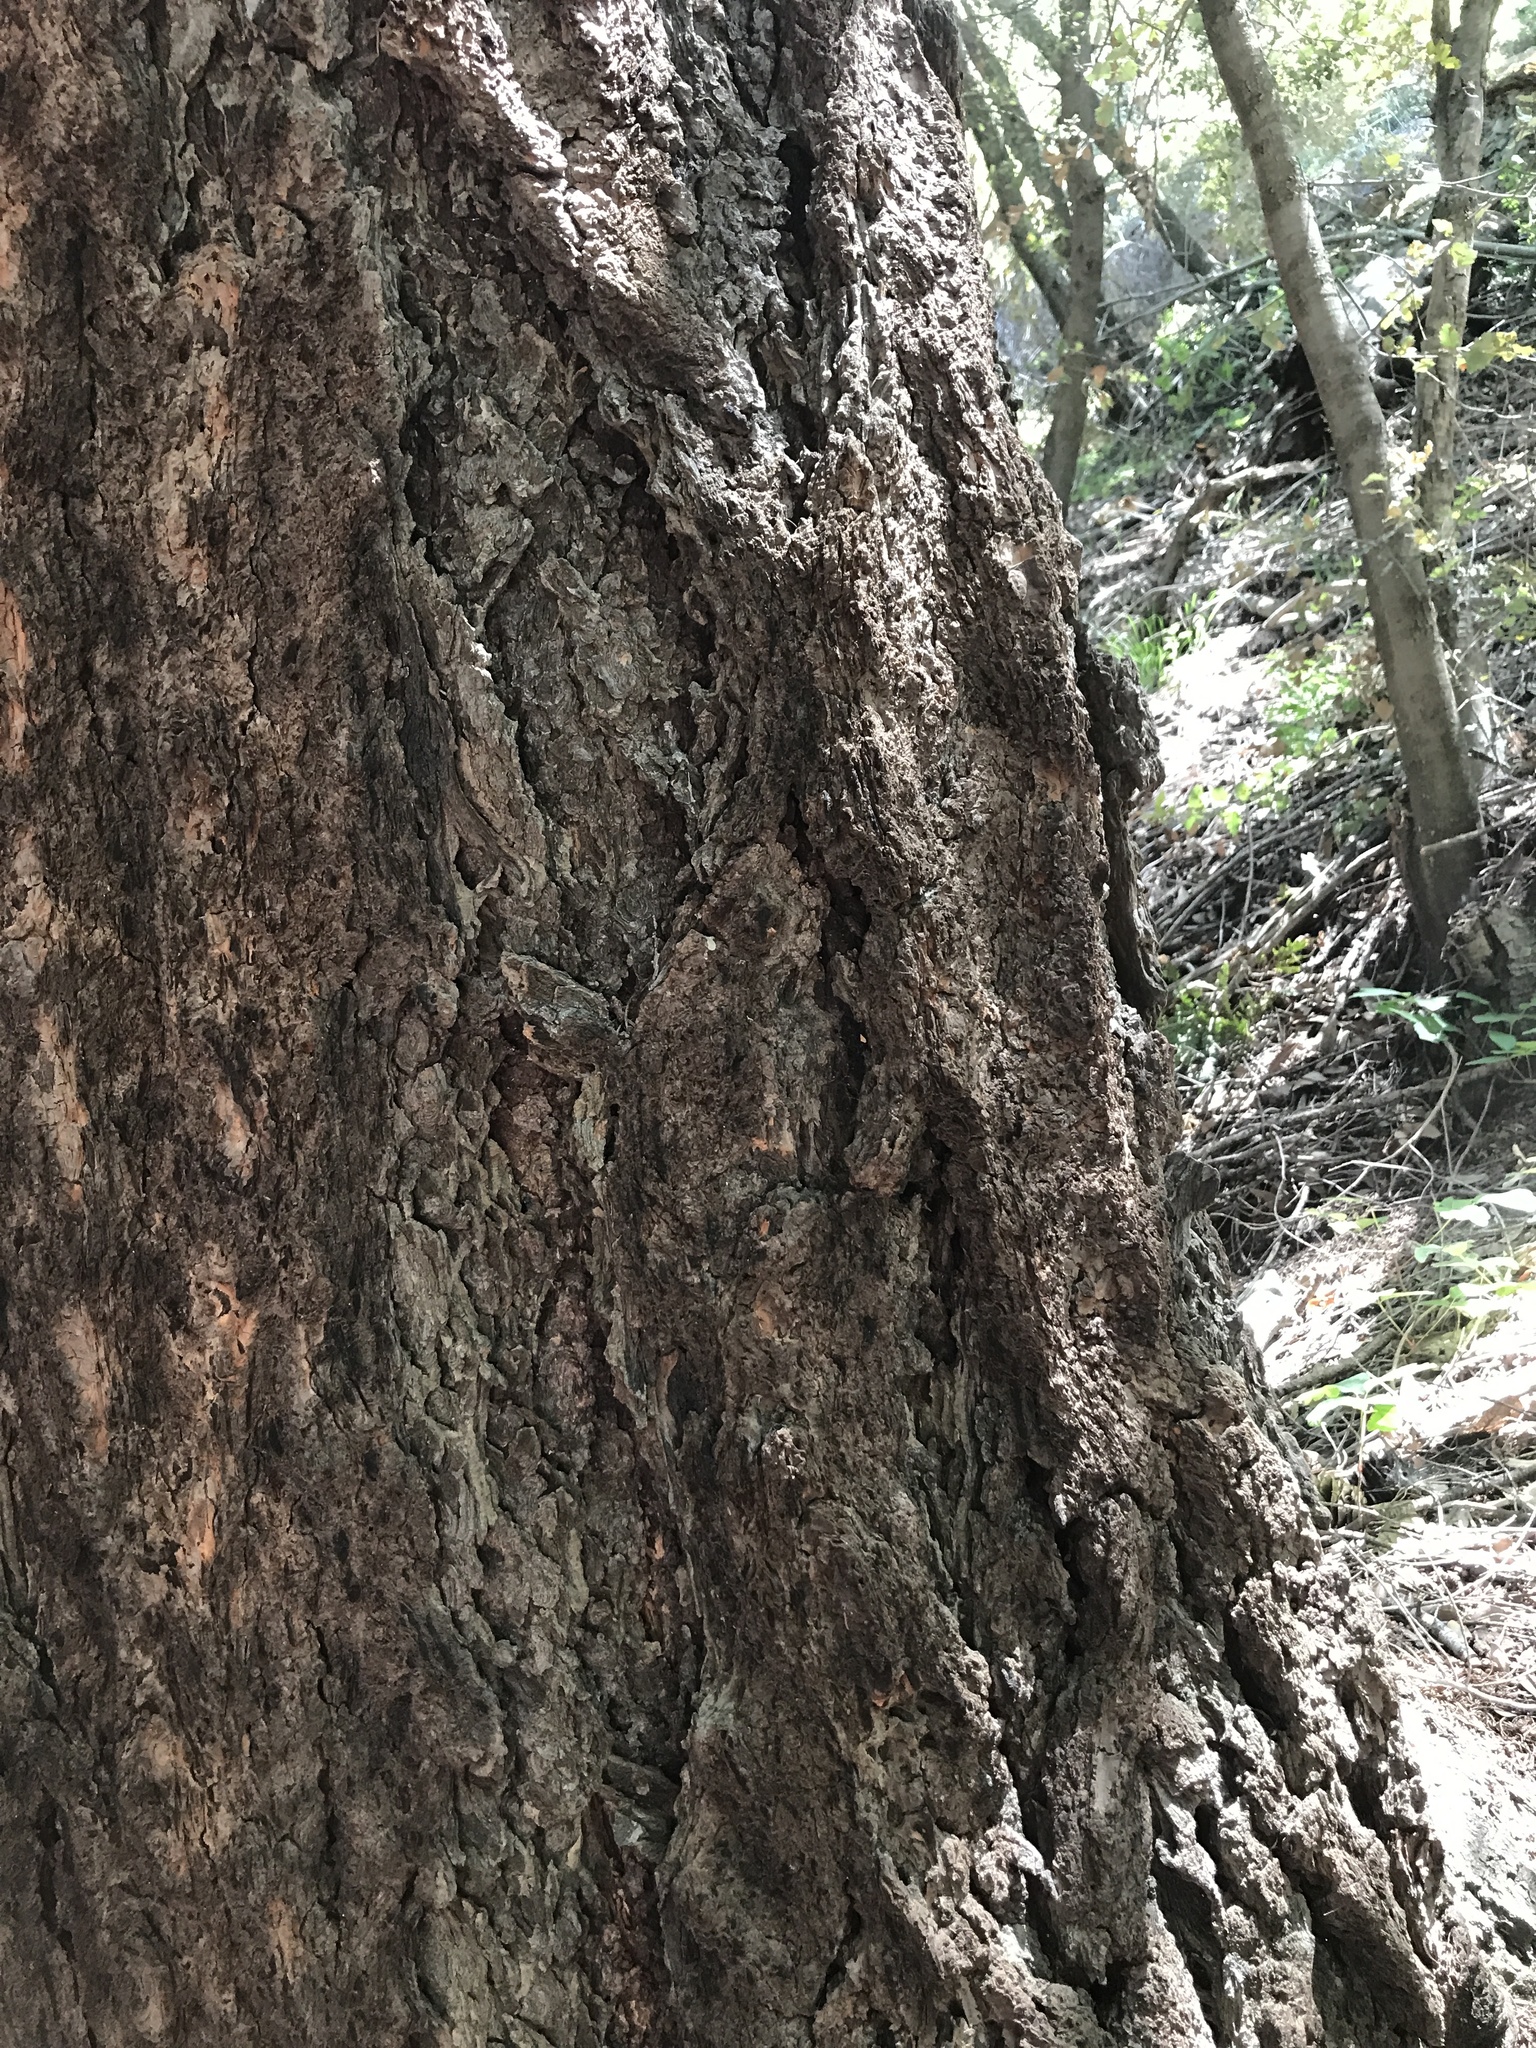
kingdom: Plantae
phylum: Tracheophyta
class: Pinopsida
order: Pinales
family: Pinaceae
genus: Pseudotsuga
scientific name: Pseudotsuga macrocarpa
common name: Big-cone douglas-fir
